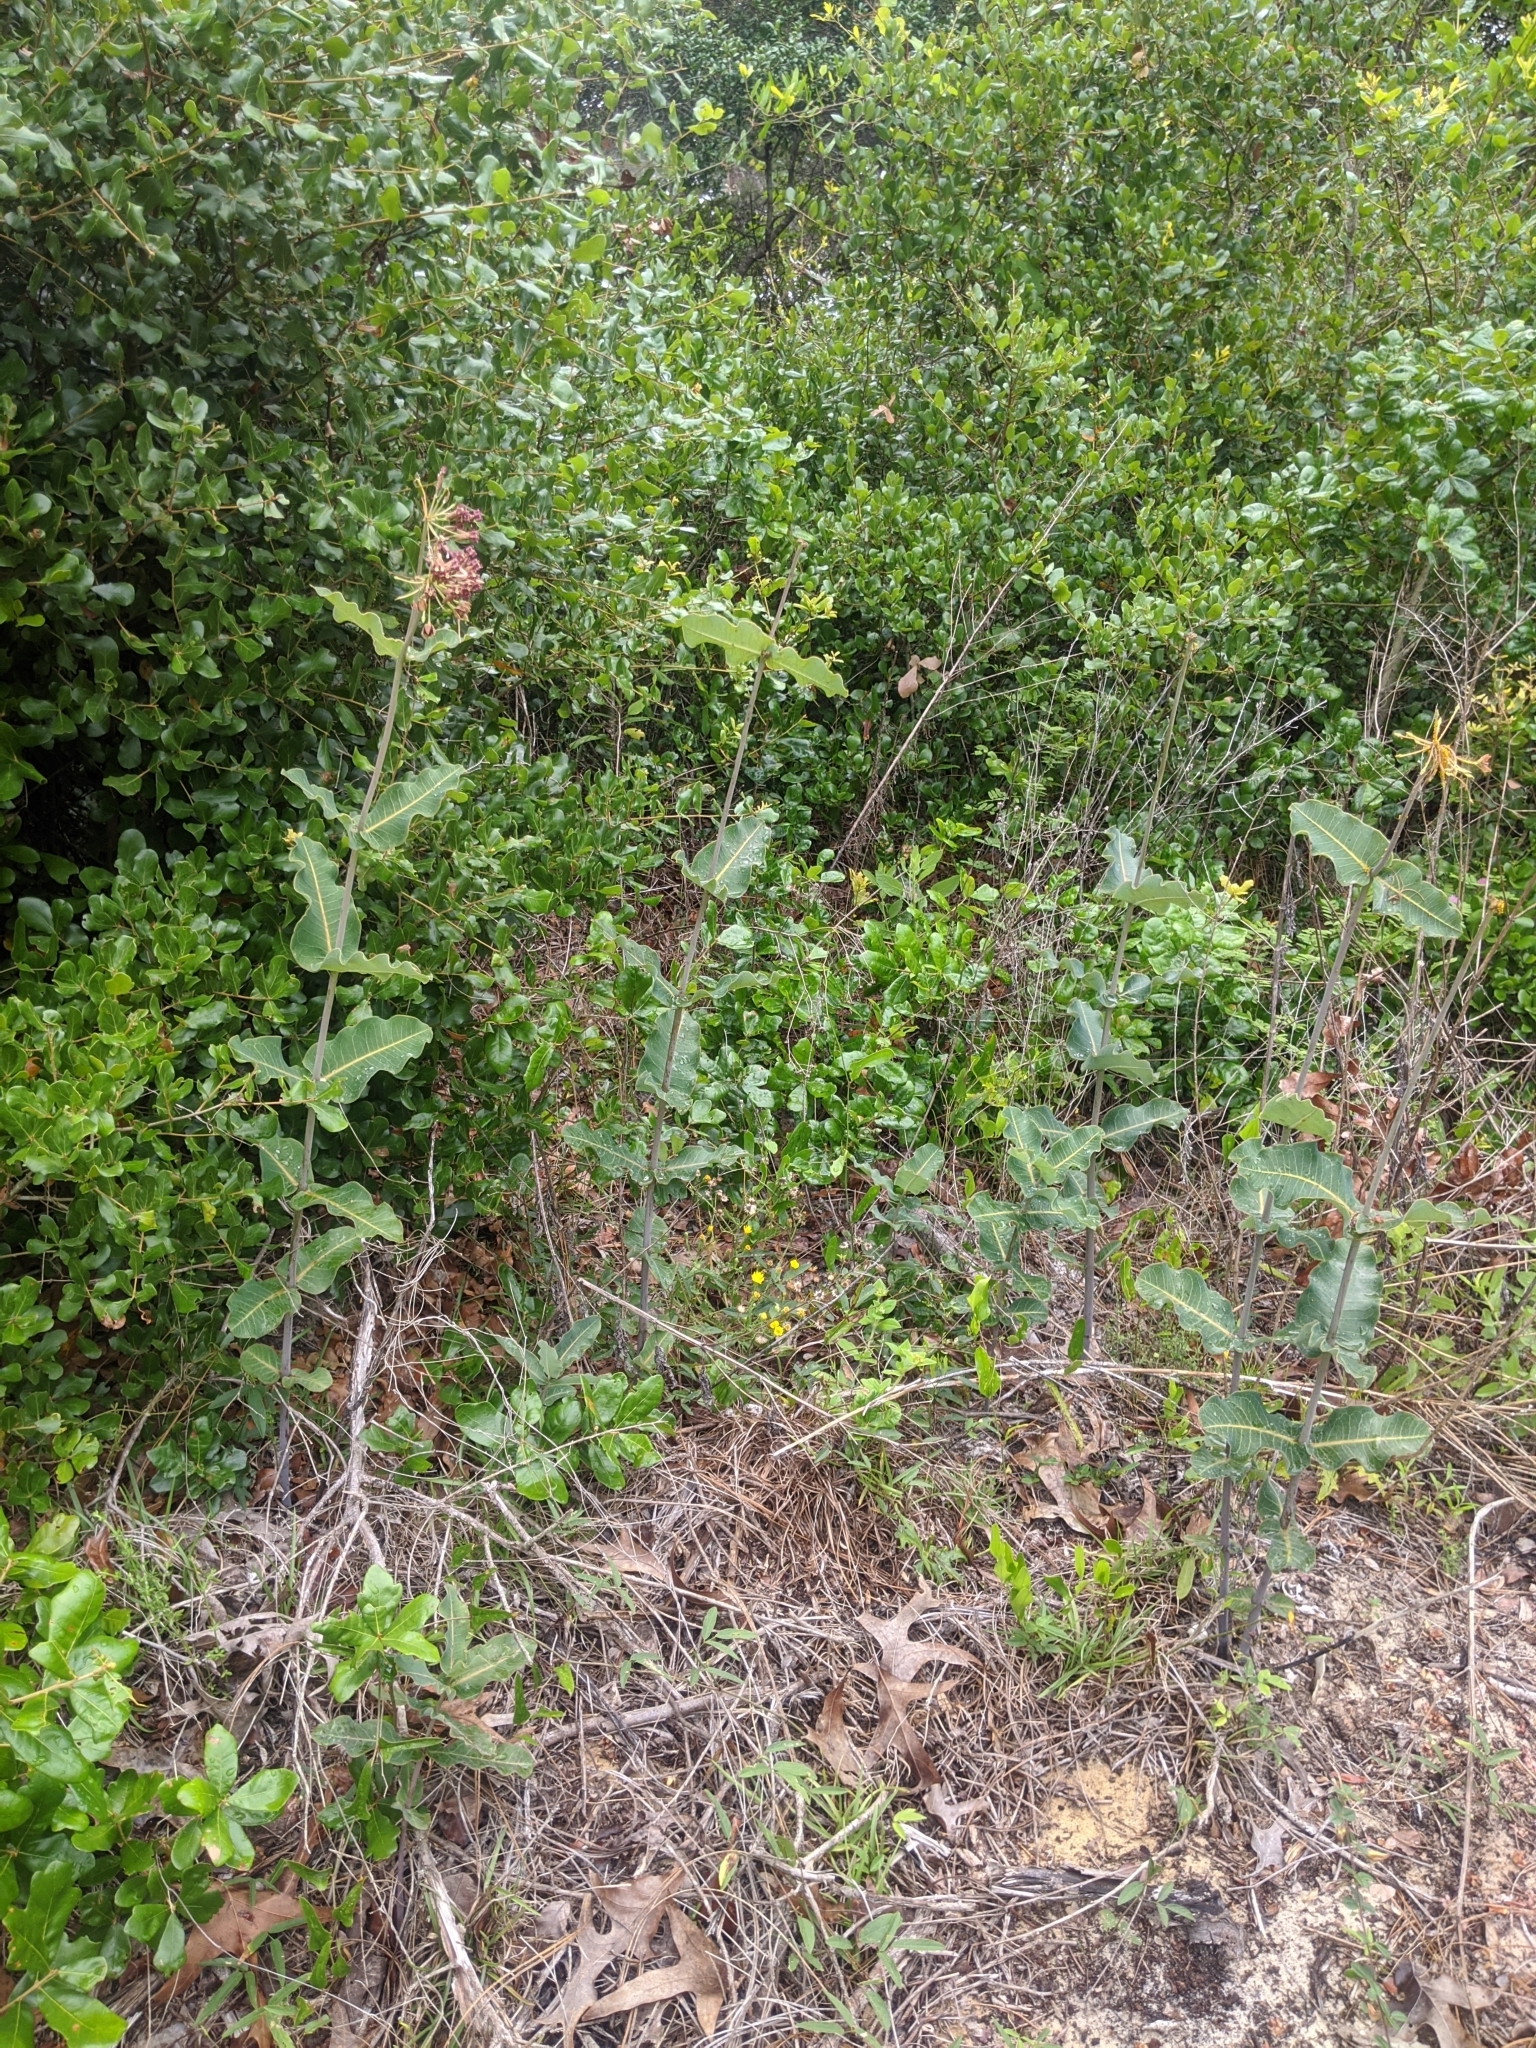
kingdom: Plantae
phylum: Tracheophyta
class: Magnoliopsida
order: Gentianales
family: Apocynaceae
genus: Asclepias
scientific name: Asclepias amplexicaulis
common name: Blunt-leaf milkweed
